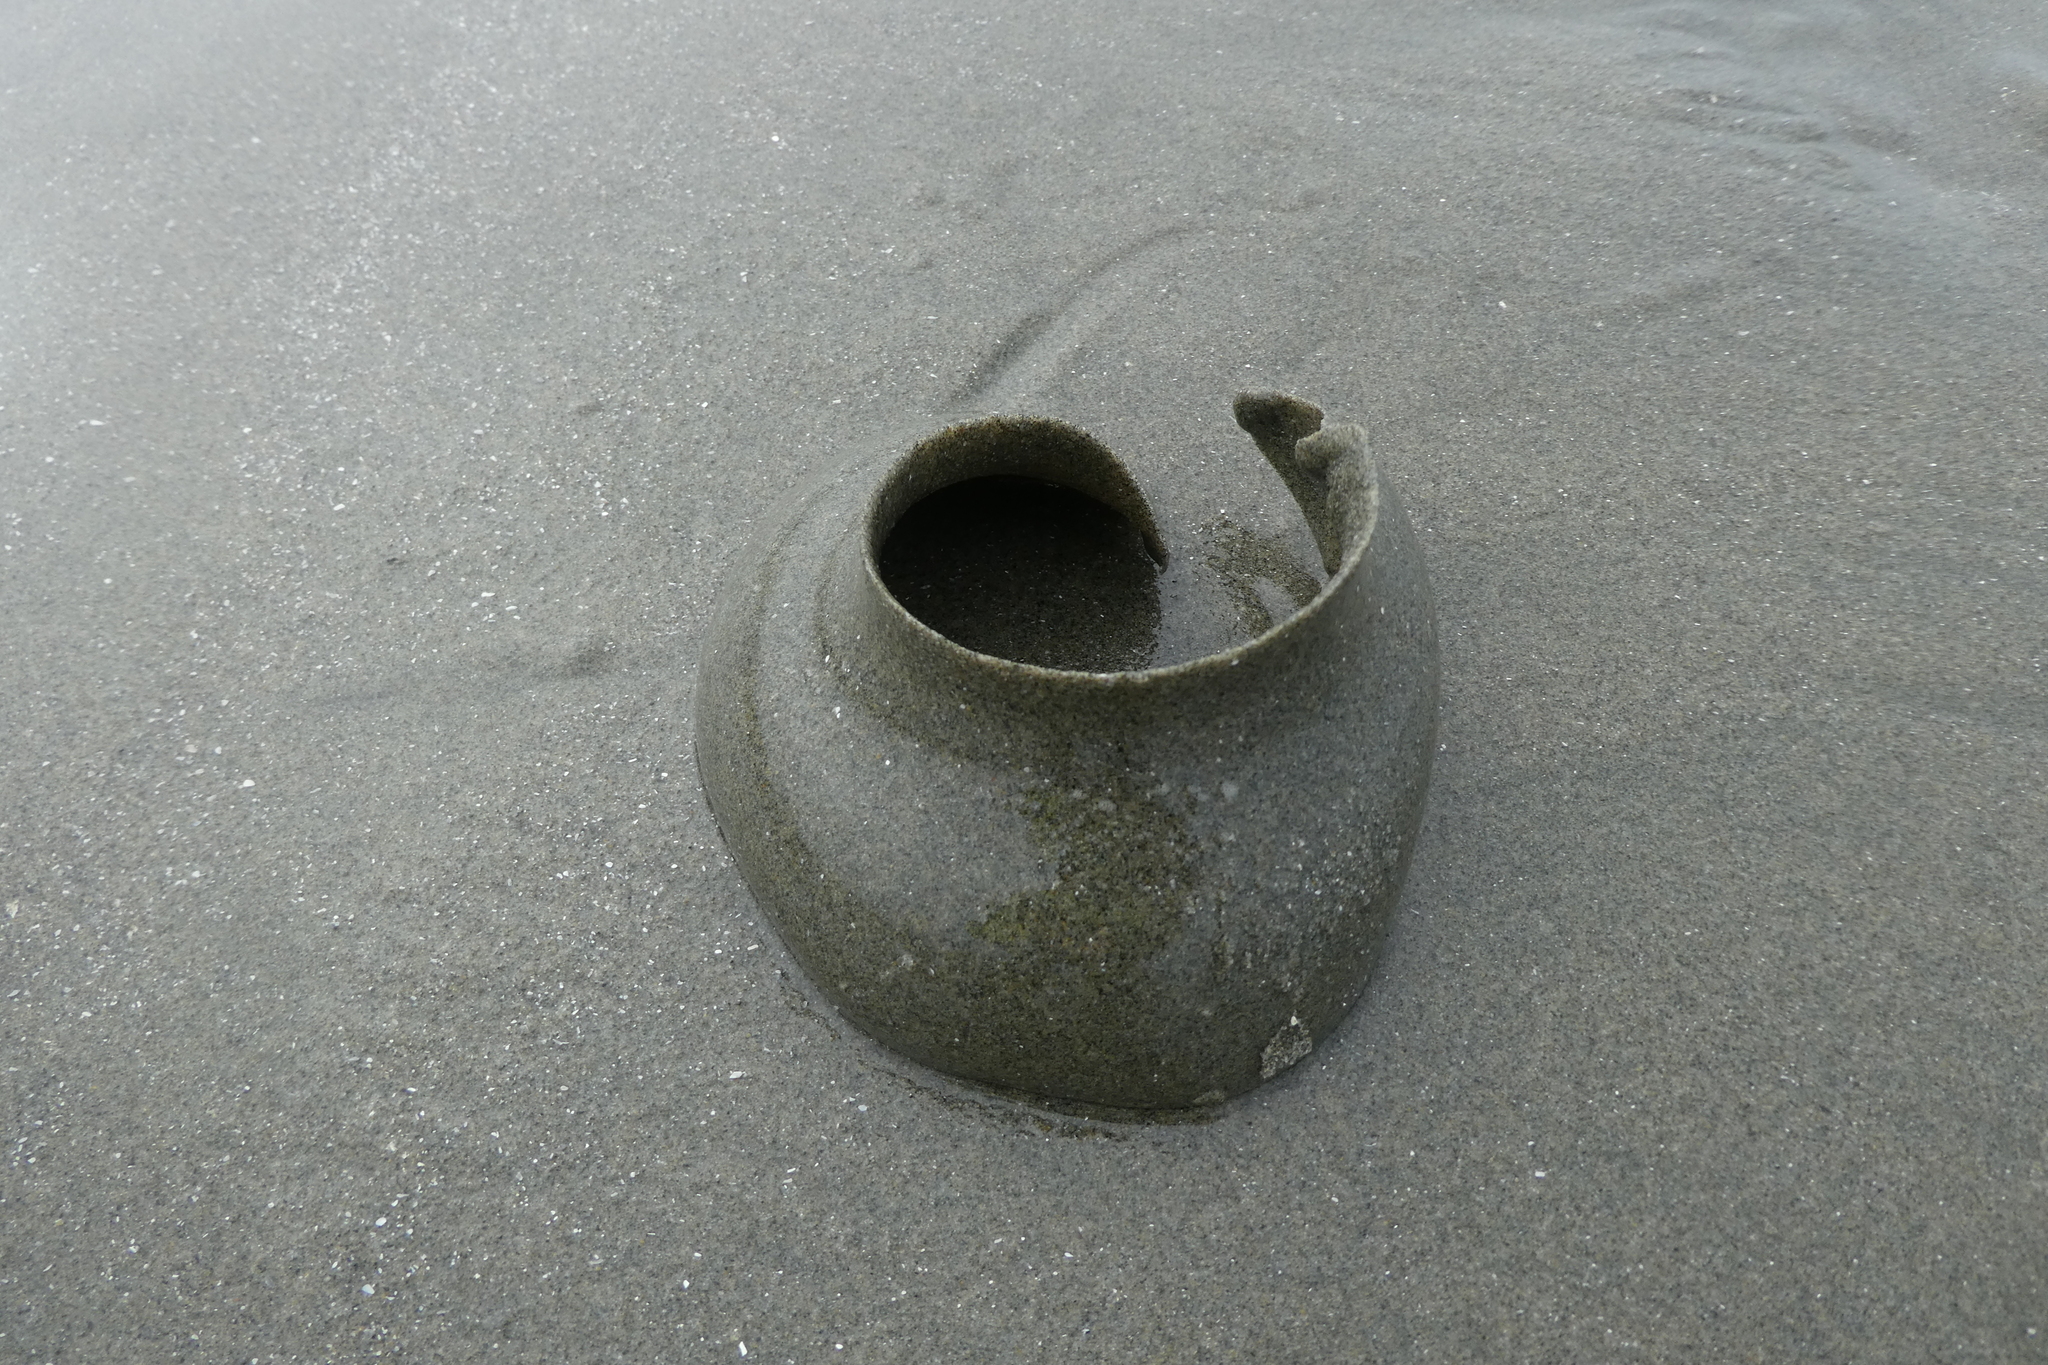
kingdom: Animalia
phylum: Mollusca
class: Gastropoda
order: Littorinimorpha
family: Naticidae
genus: Neverita
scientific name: Neverita lewisii
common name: Lewis' moonsnail
